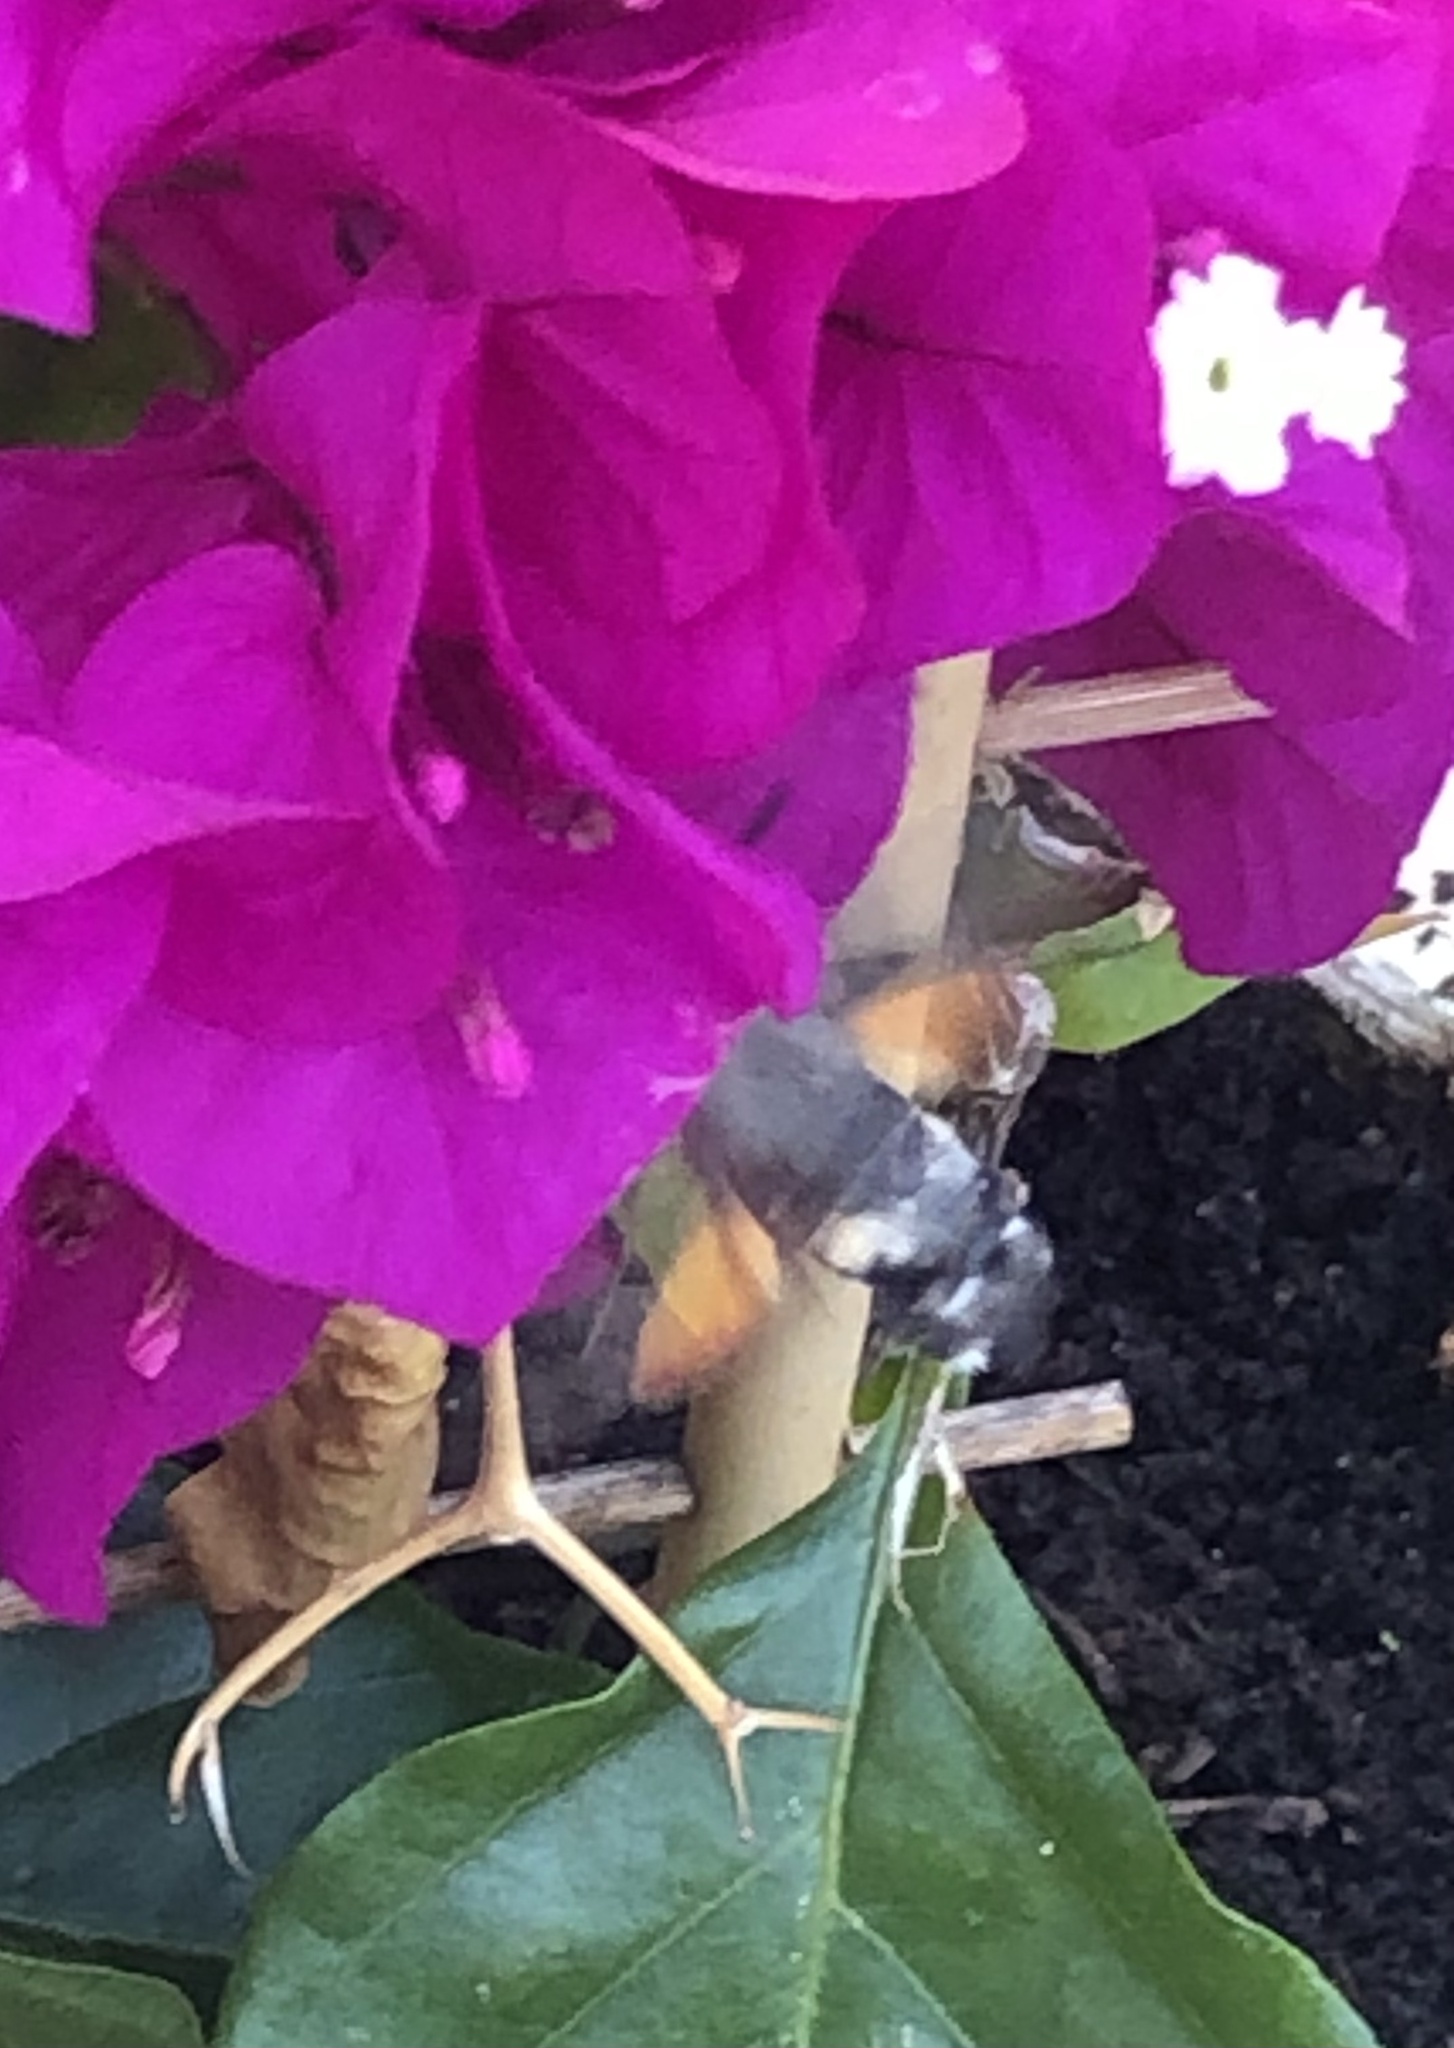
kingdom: Animalia
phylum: Arthropoda
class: Insecta
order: Lepidoptera
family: Sphingidae
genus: Macroglossum
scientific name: Macroglossum stellatarum
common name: Humming-bird hawk-moth
